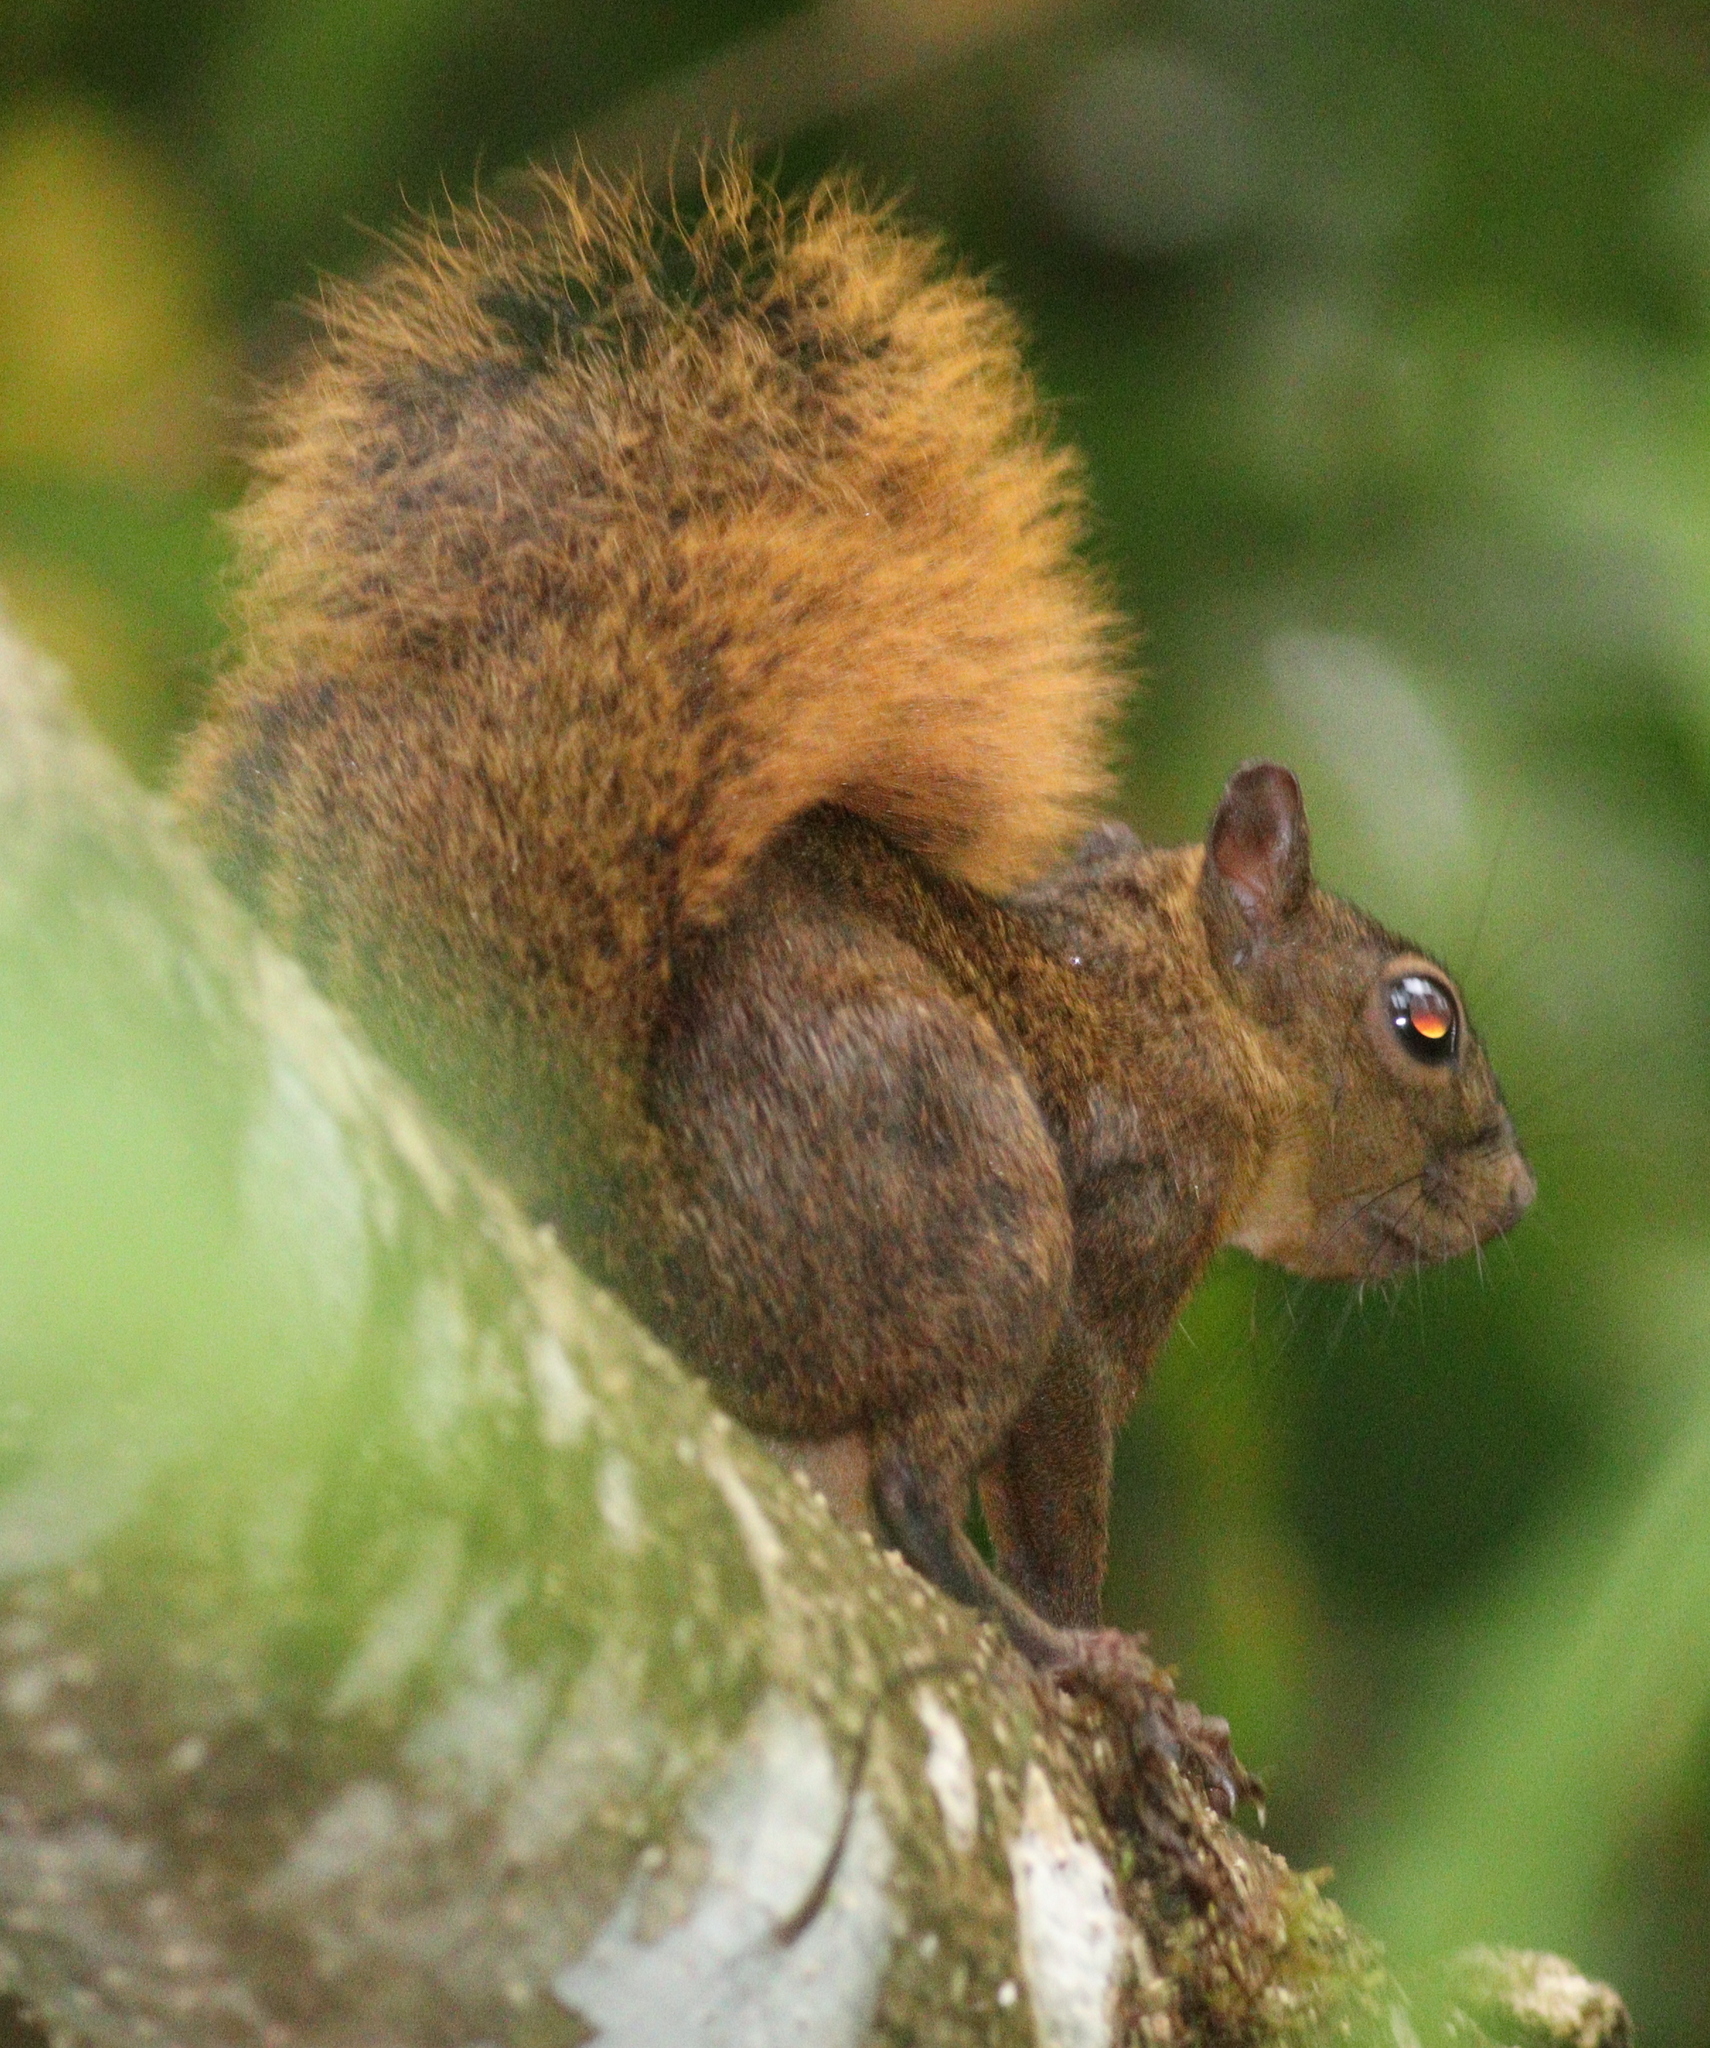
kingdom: Animalia
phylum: Chordata
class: Mammalia
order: Rodentia
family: Sciuridae
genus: Sciurus
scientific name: Sciurus granatensis
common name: Red-tailed squirrel
